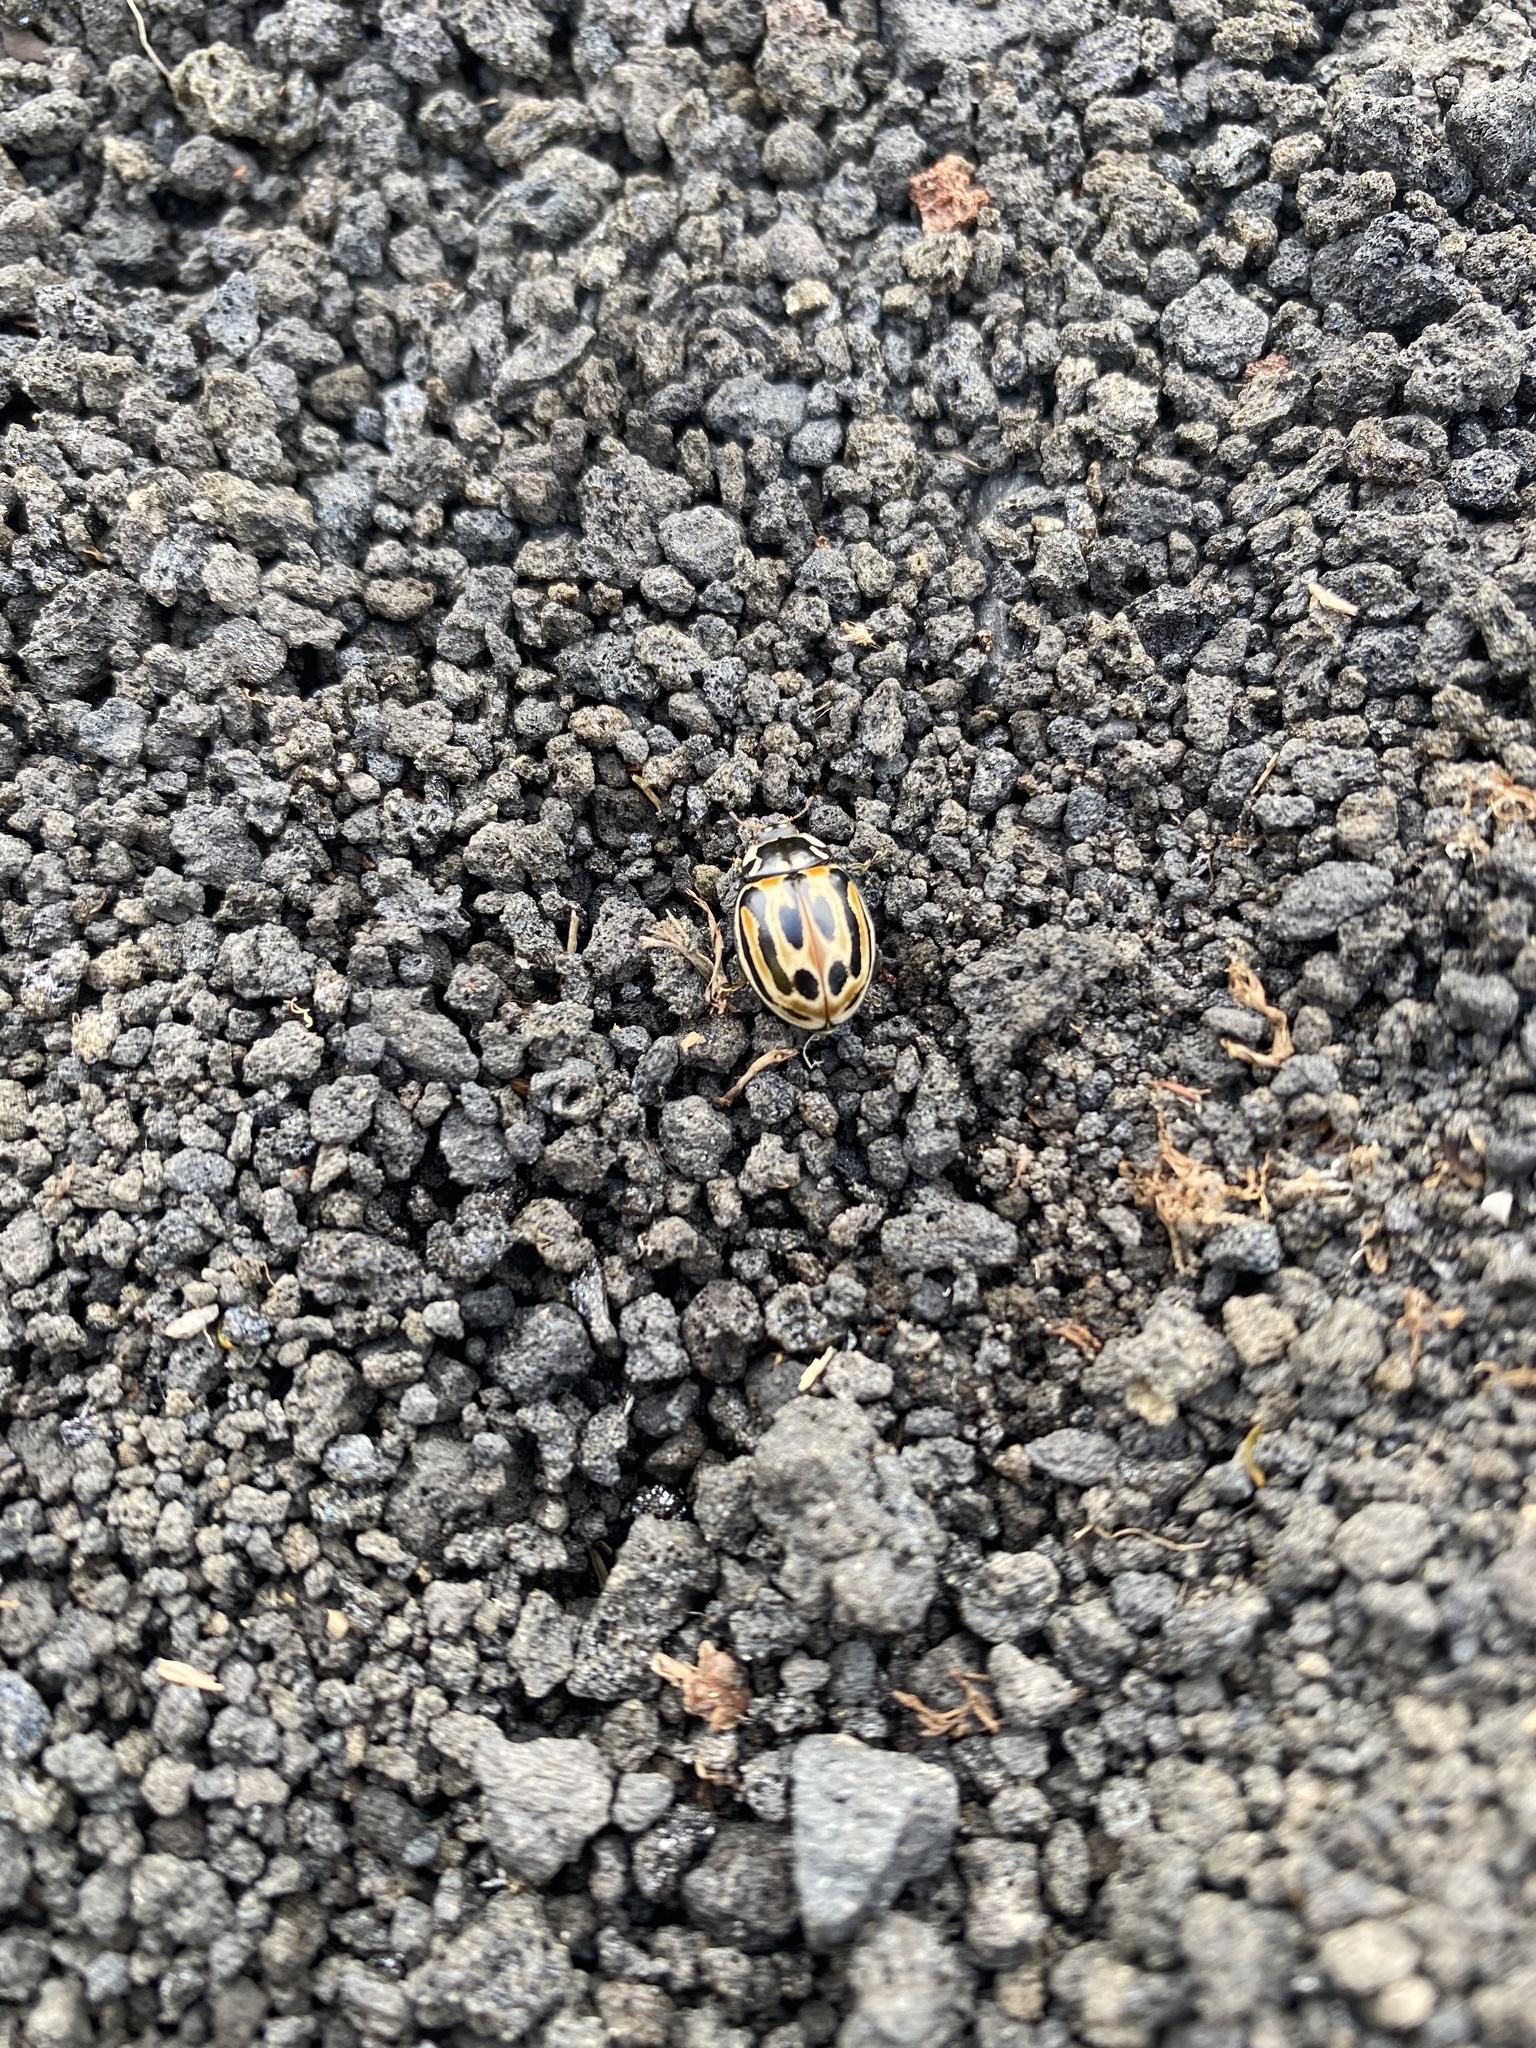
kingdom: Animalia
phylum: Arthropoda
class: Insecta
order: Coleoptera
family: Coccinellidae
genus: Anatis
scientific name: Anatis ocellata
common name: Eyed ladybird
